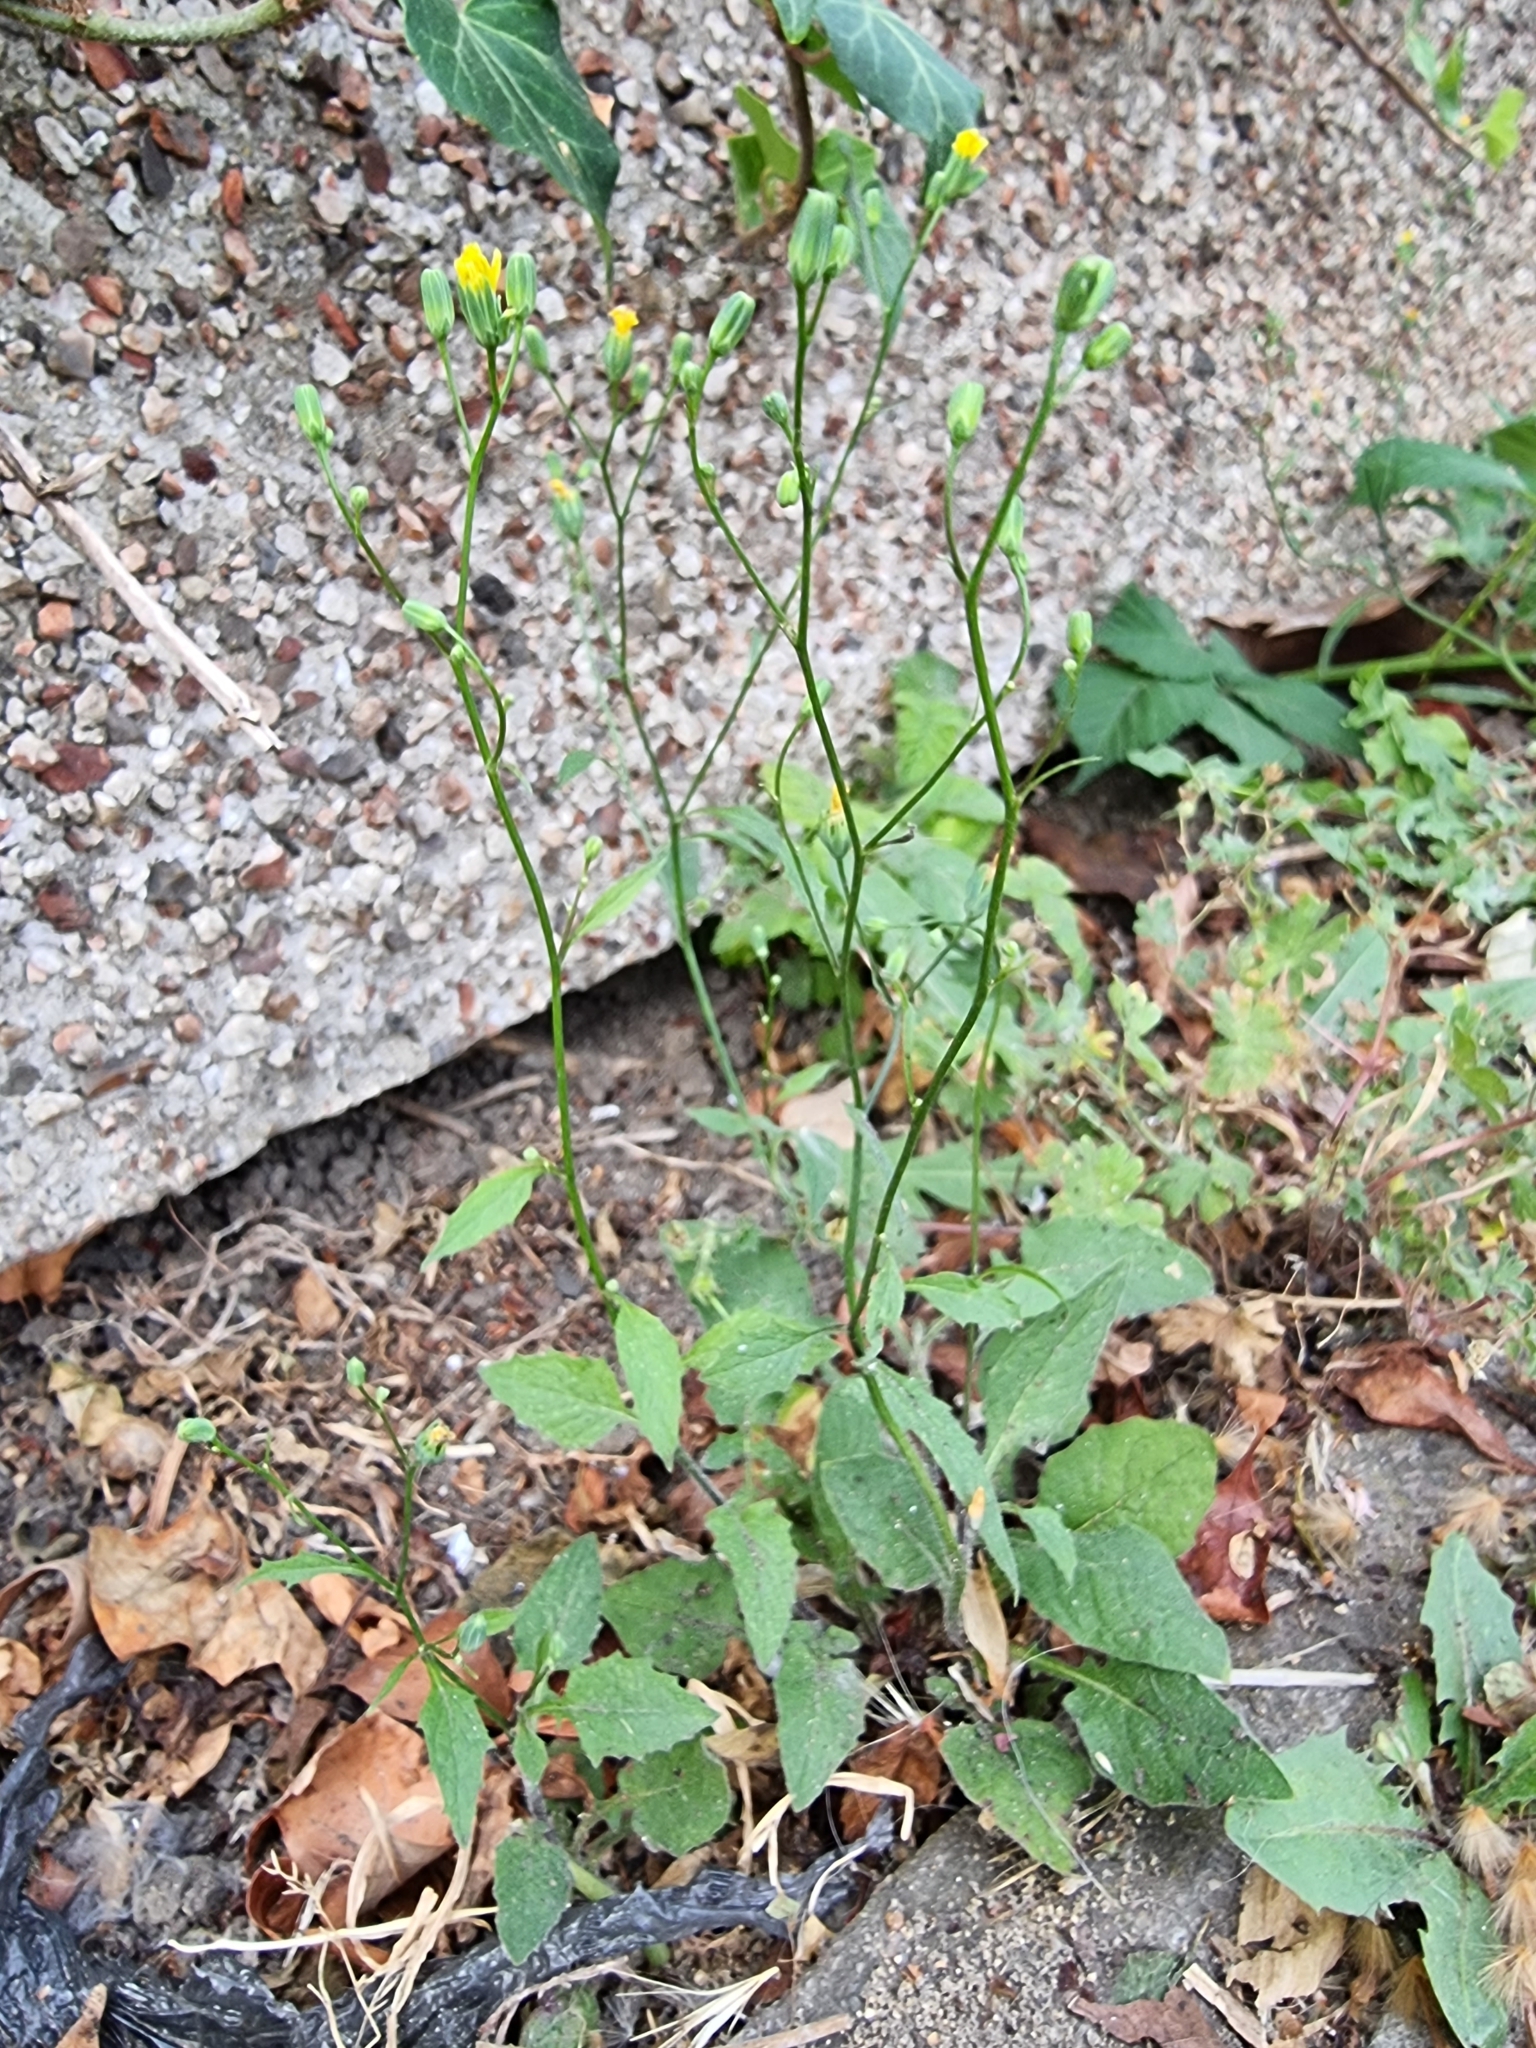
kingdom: Plantae
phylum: Tracheophyta
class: Magnoliopsida
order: Asterales
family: Asteraceae
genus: Lapsana
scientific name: Lapsana communis
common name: Nipplewort
